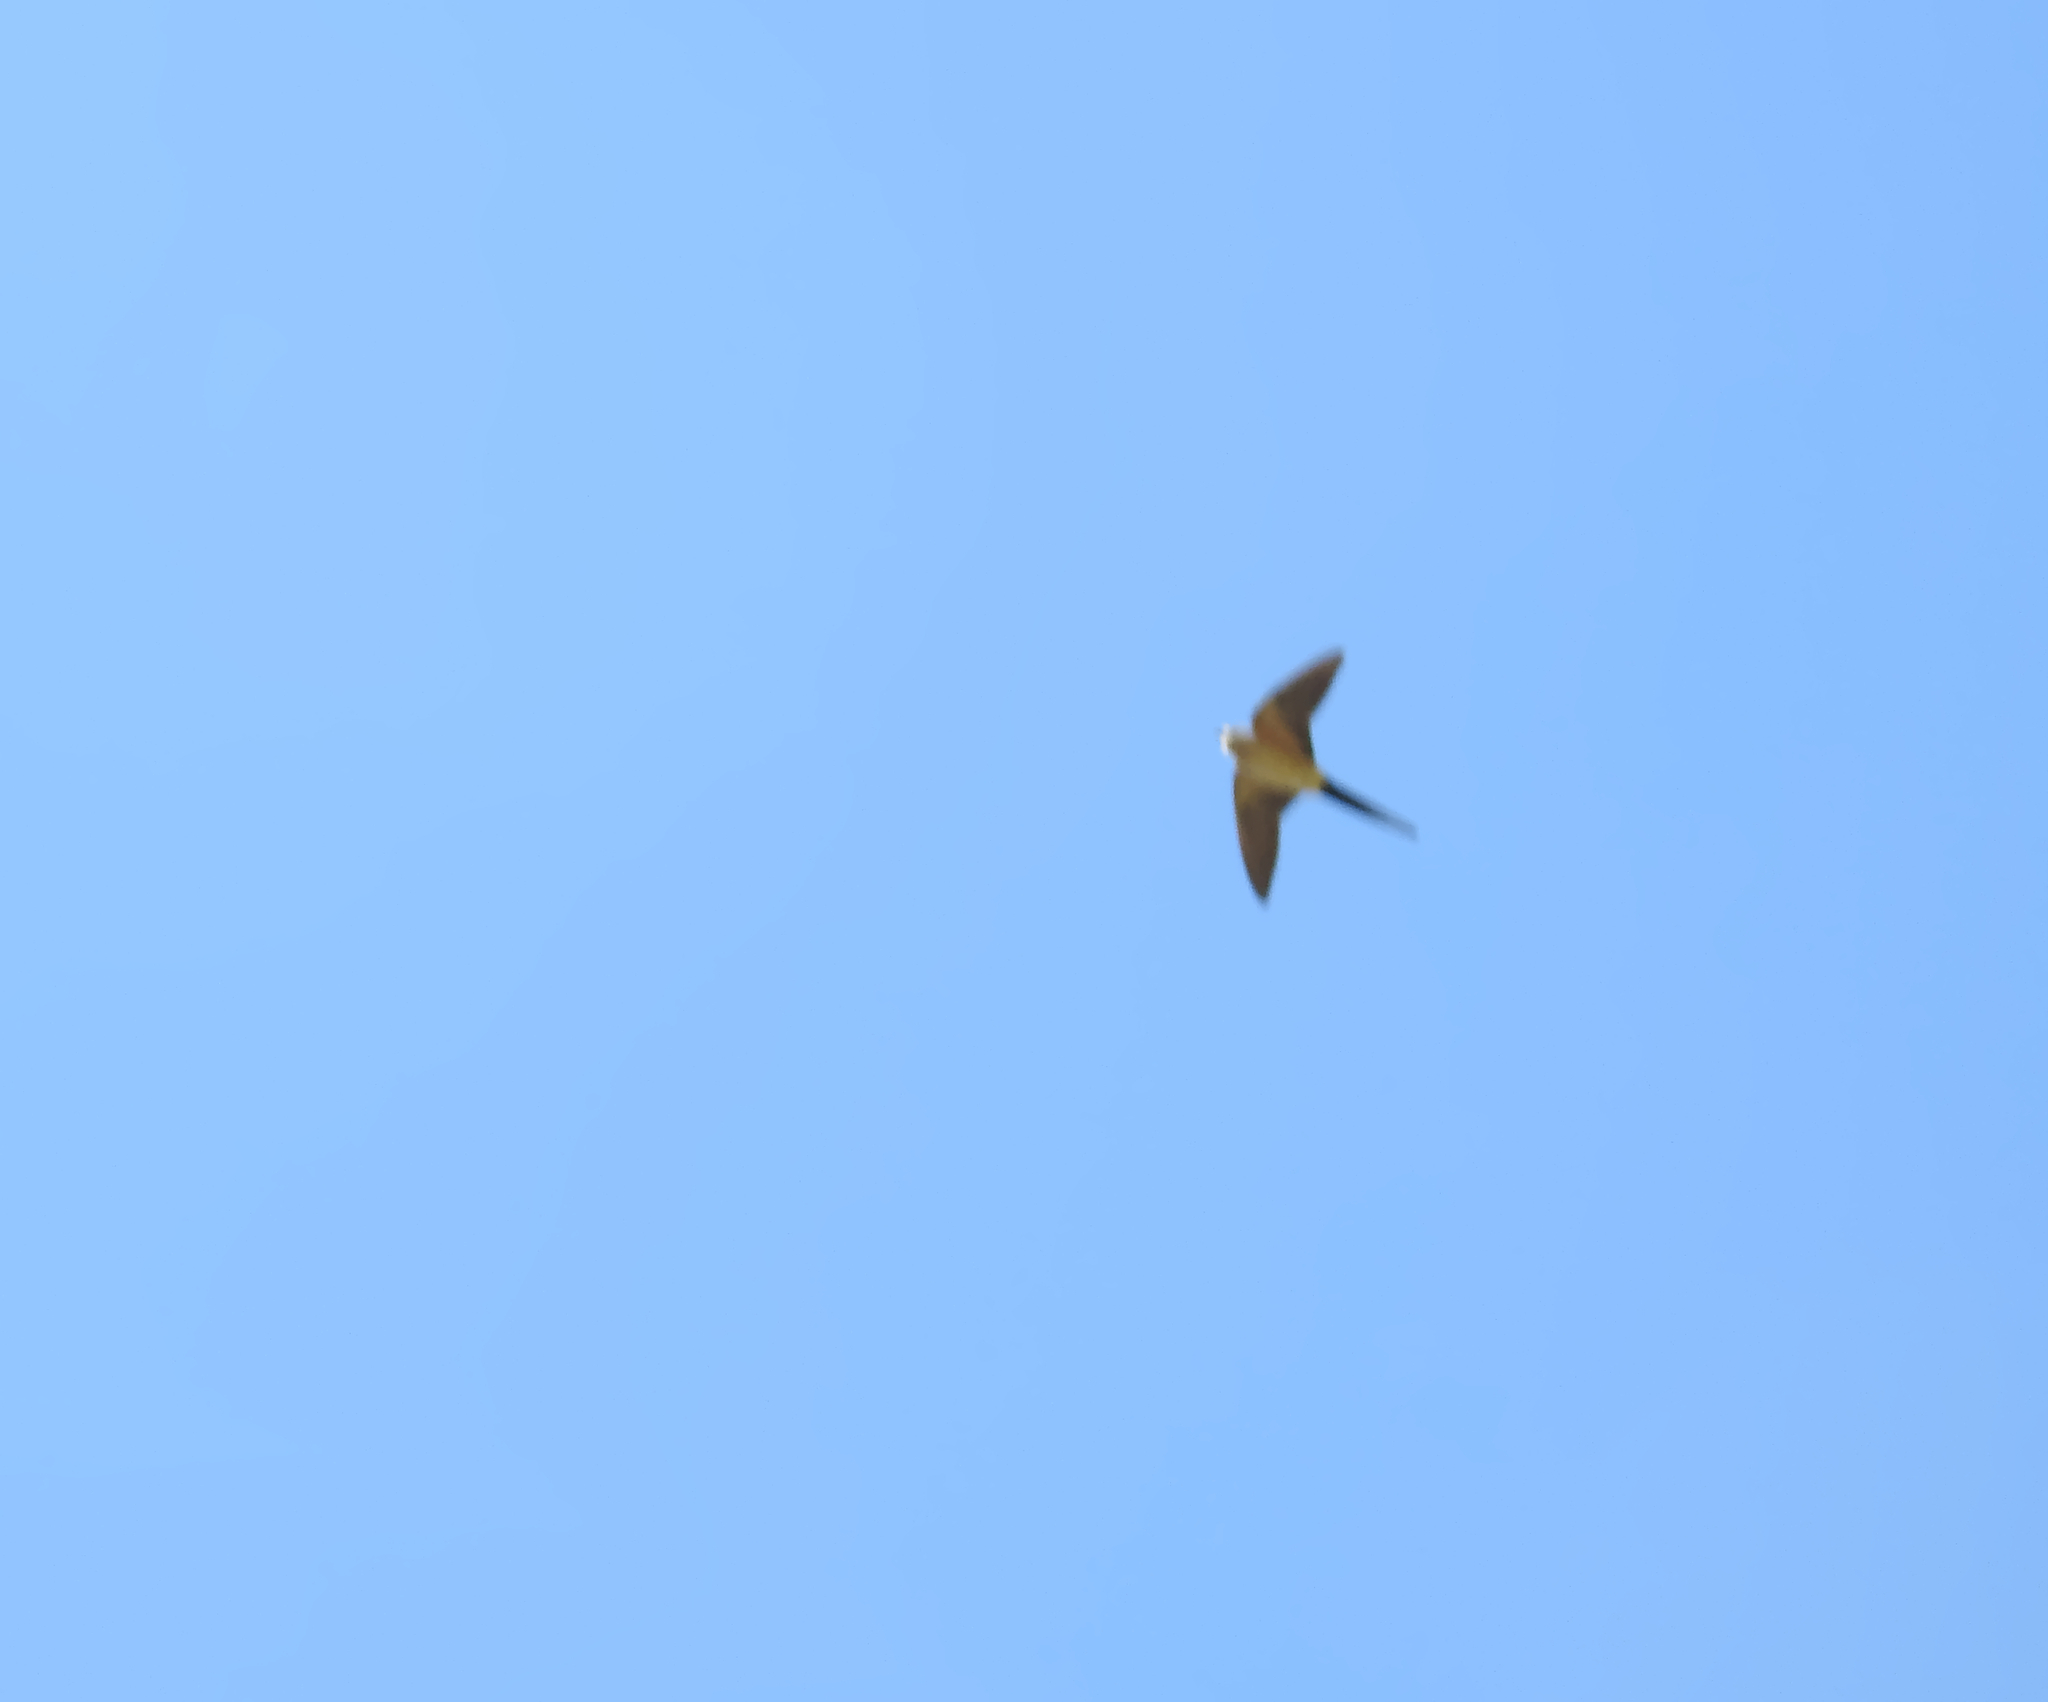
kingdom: Animalia
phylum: Chordata
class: Aves
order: Passeriformes
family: Hirundinidae
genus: Cecropis
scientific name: Cecropis daurica
